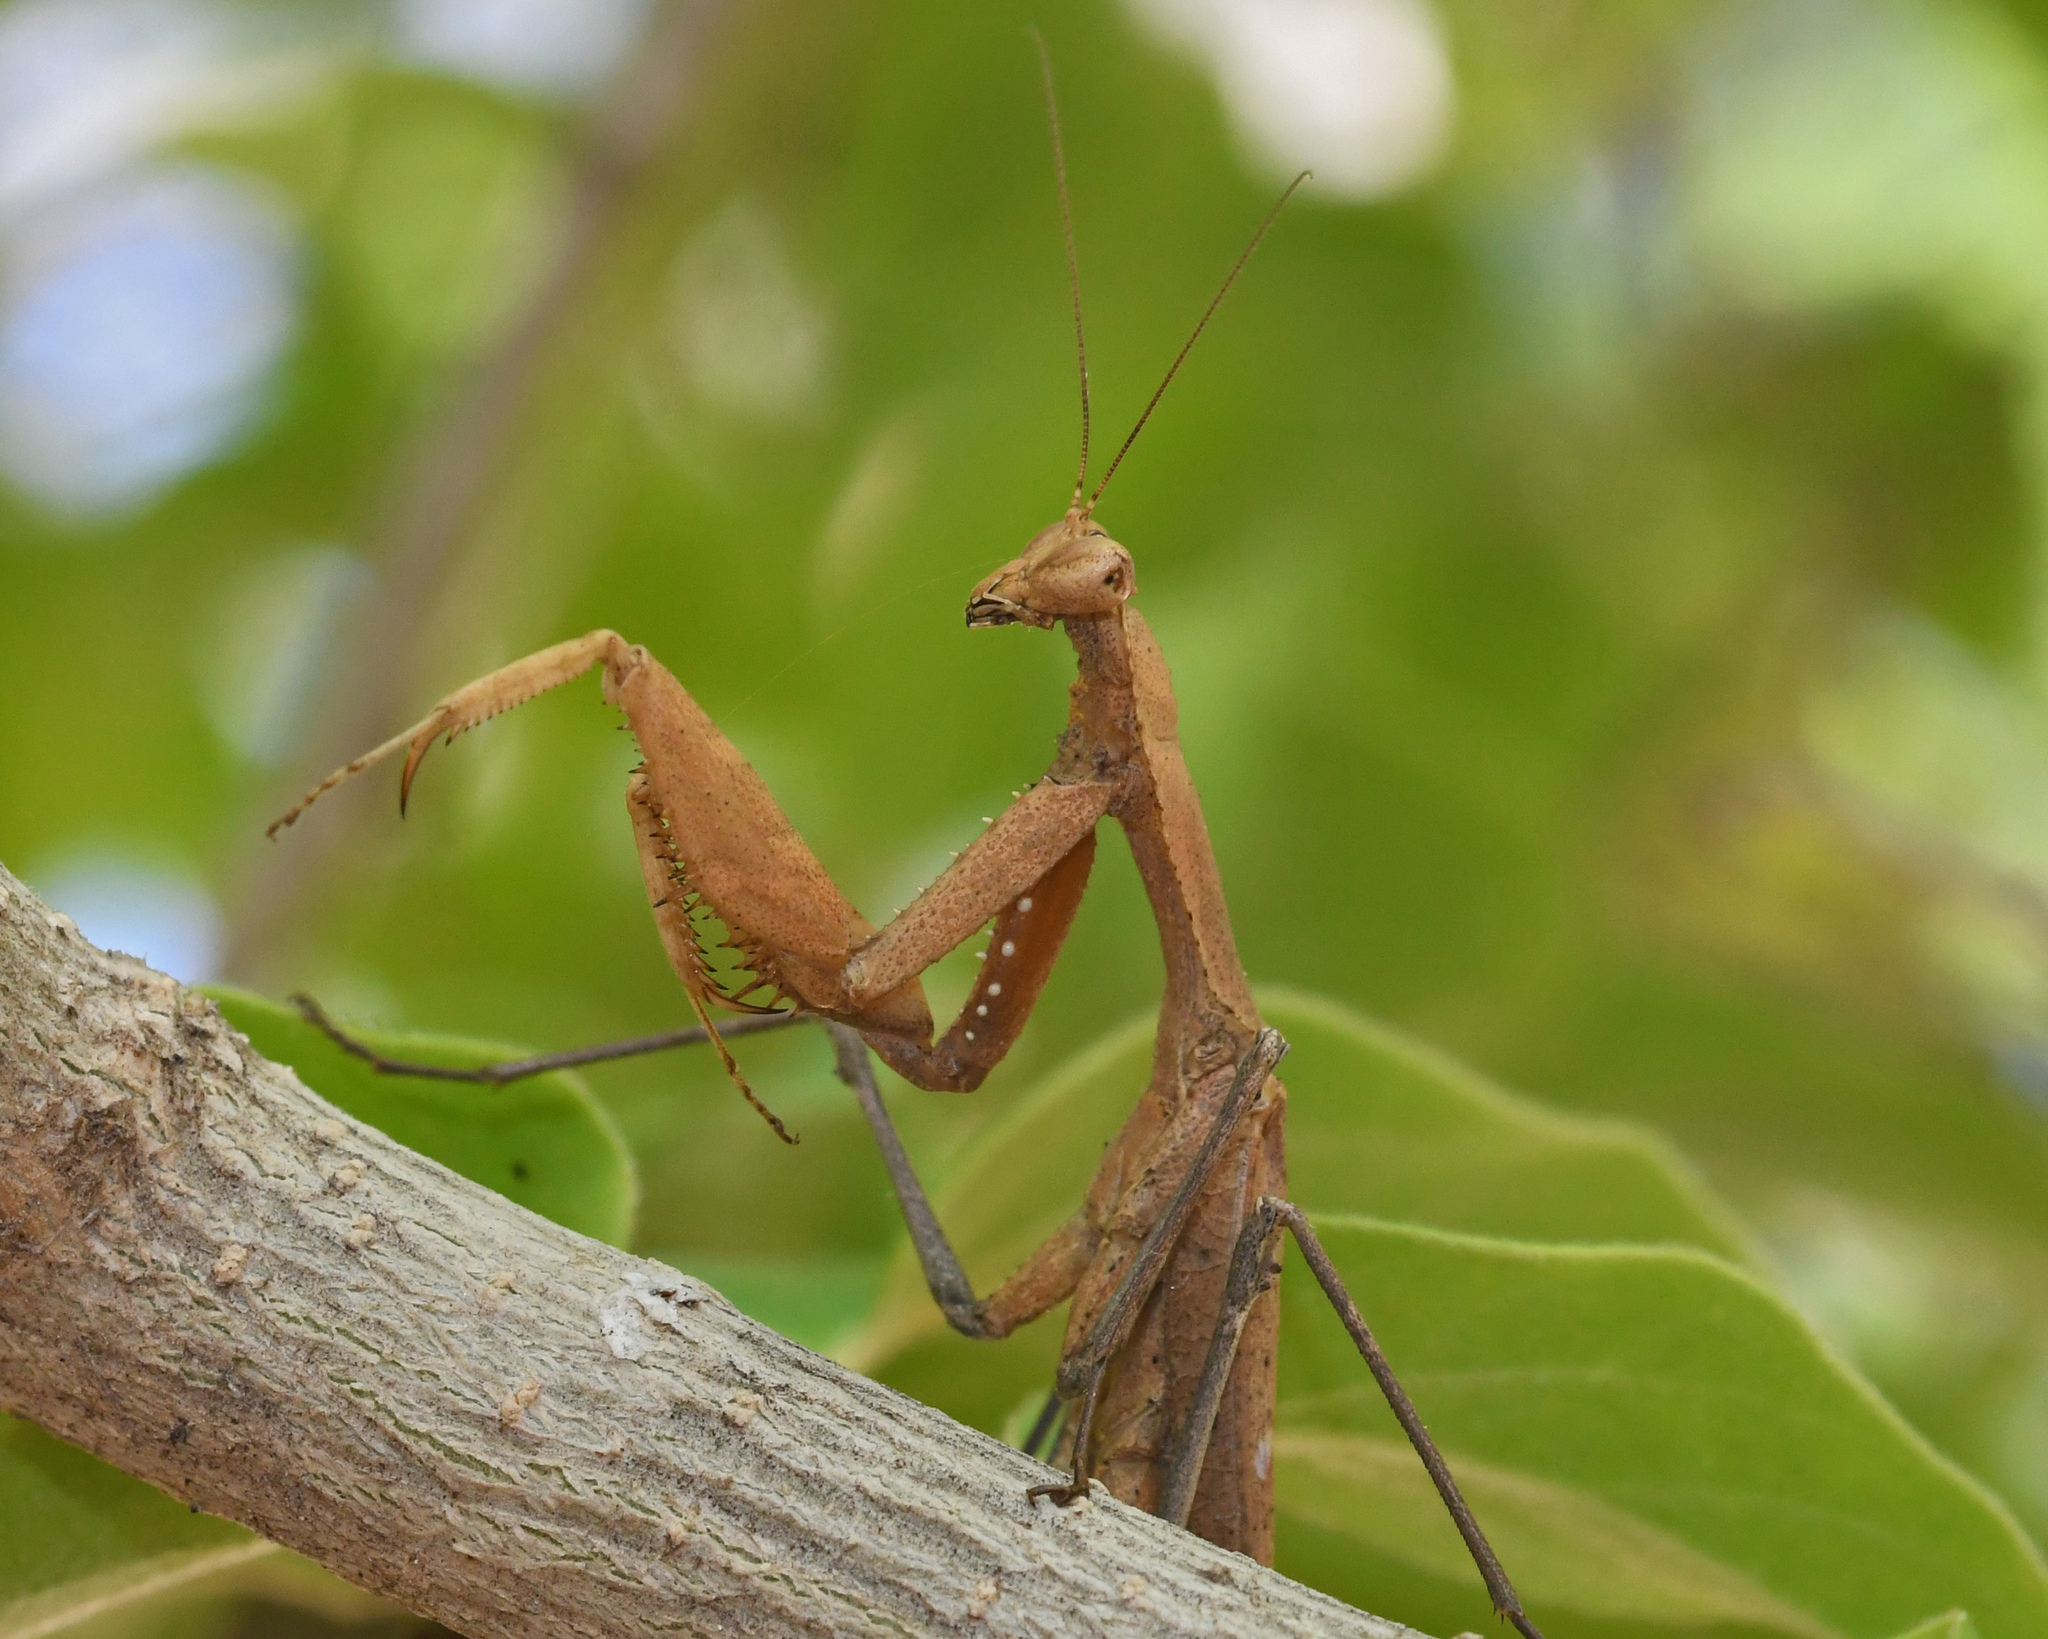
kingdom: Animalia
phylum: Arthropoda
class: Insecta
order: Mantodea
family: Epaphroditidae
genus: Epaphrodita
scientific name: Epaphrodita musarum
